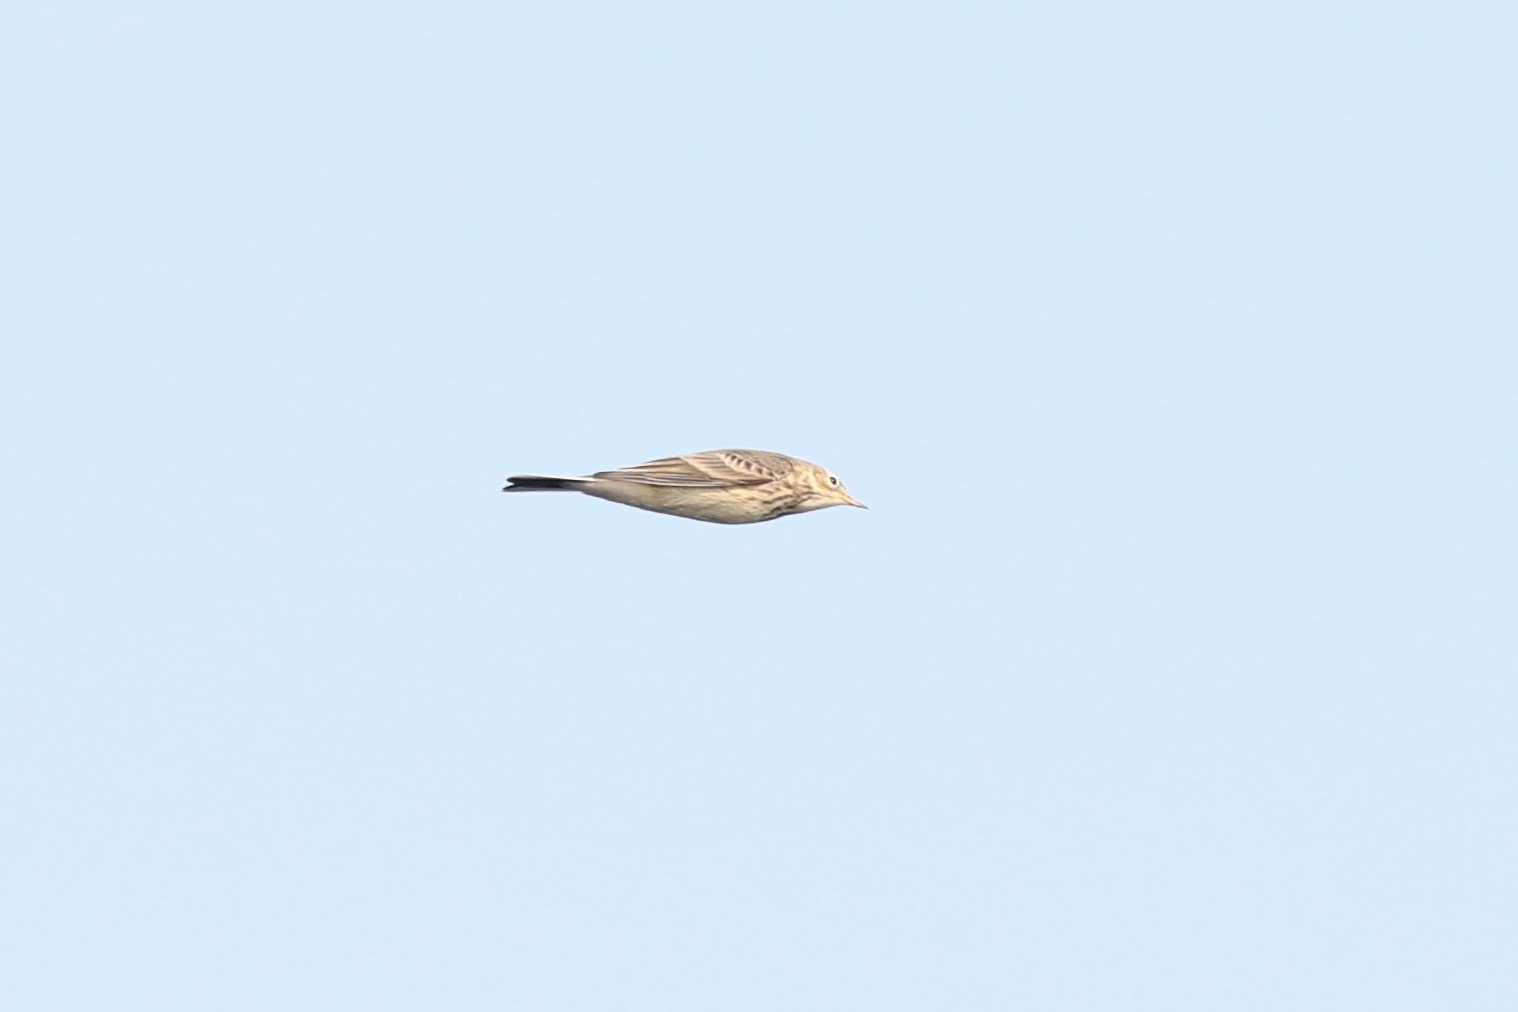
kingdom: Animalia
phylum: Chordata
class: Aves
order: Passeriformes
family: Motacillidae
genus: Anthus
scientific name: Anthus rubescens
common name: Buff-bellied pipit
